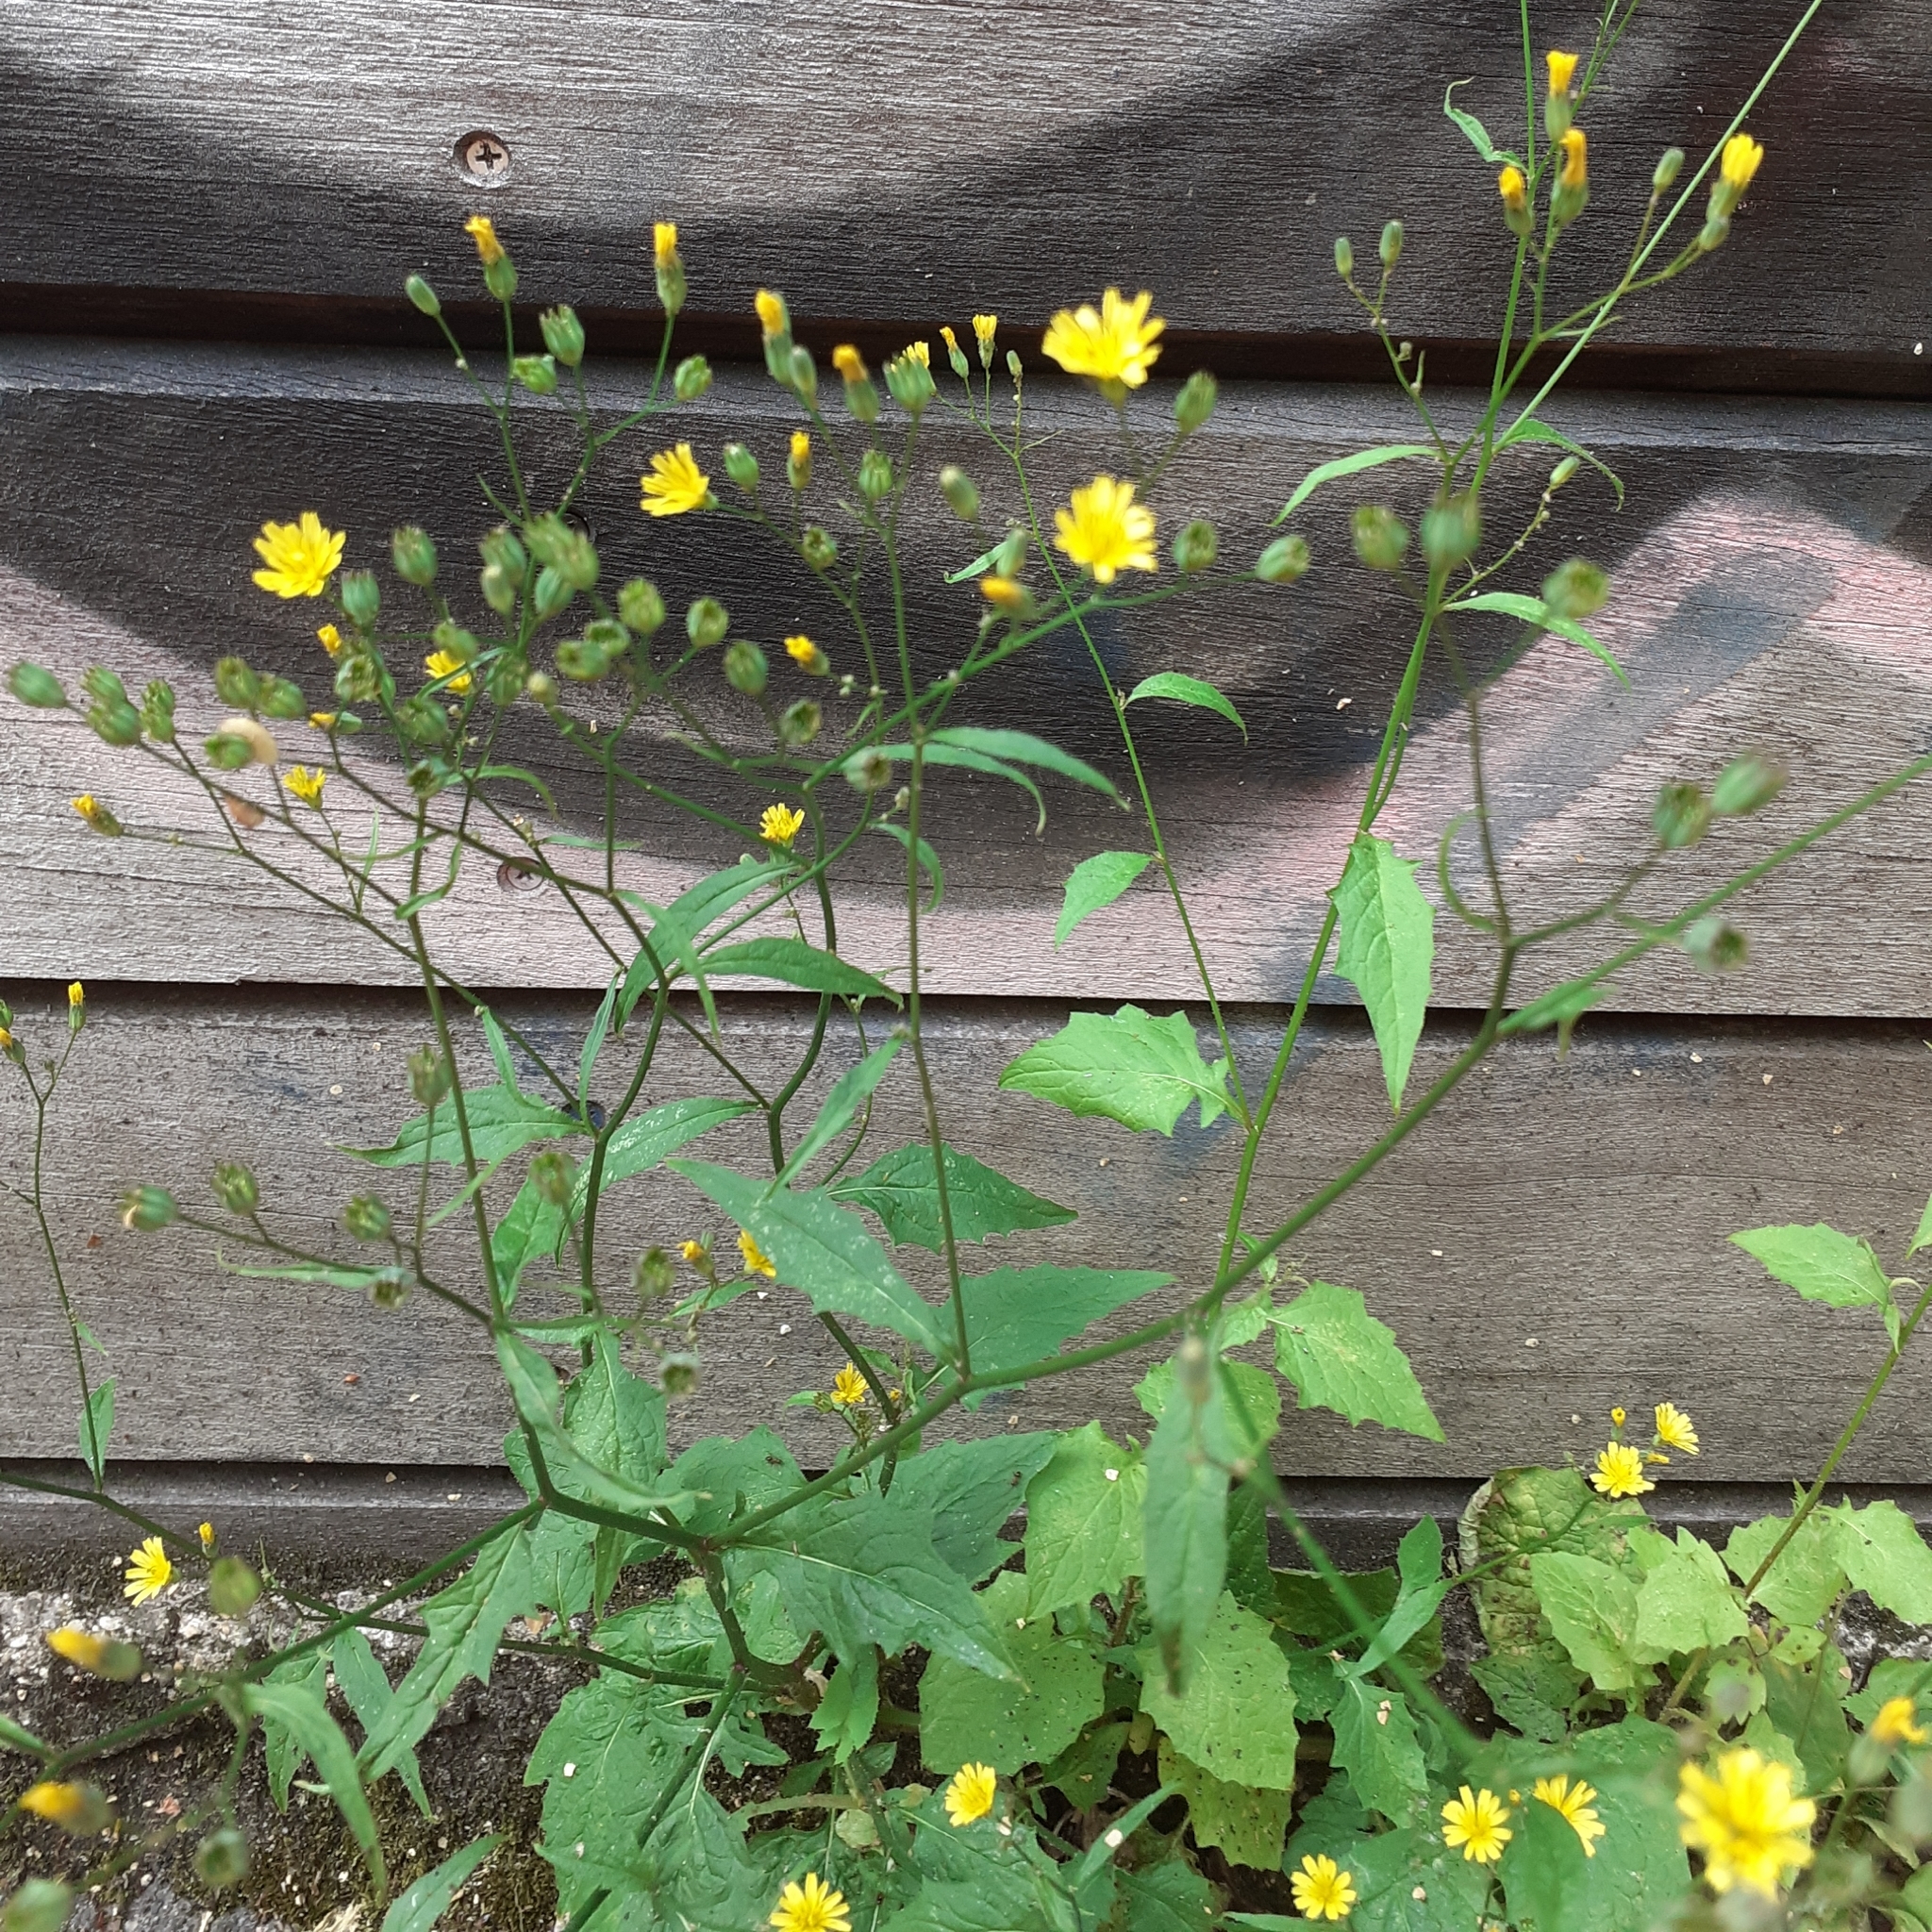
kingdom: Plantae
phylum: Tracheophyta
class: Magnoliopsida
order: Asterales
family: Asteraceae
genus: Lapsana
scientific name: Lapsana communis
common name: Nipplewort
